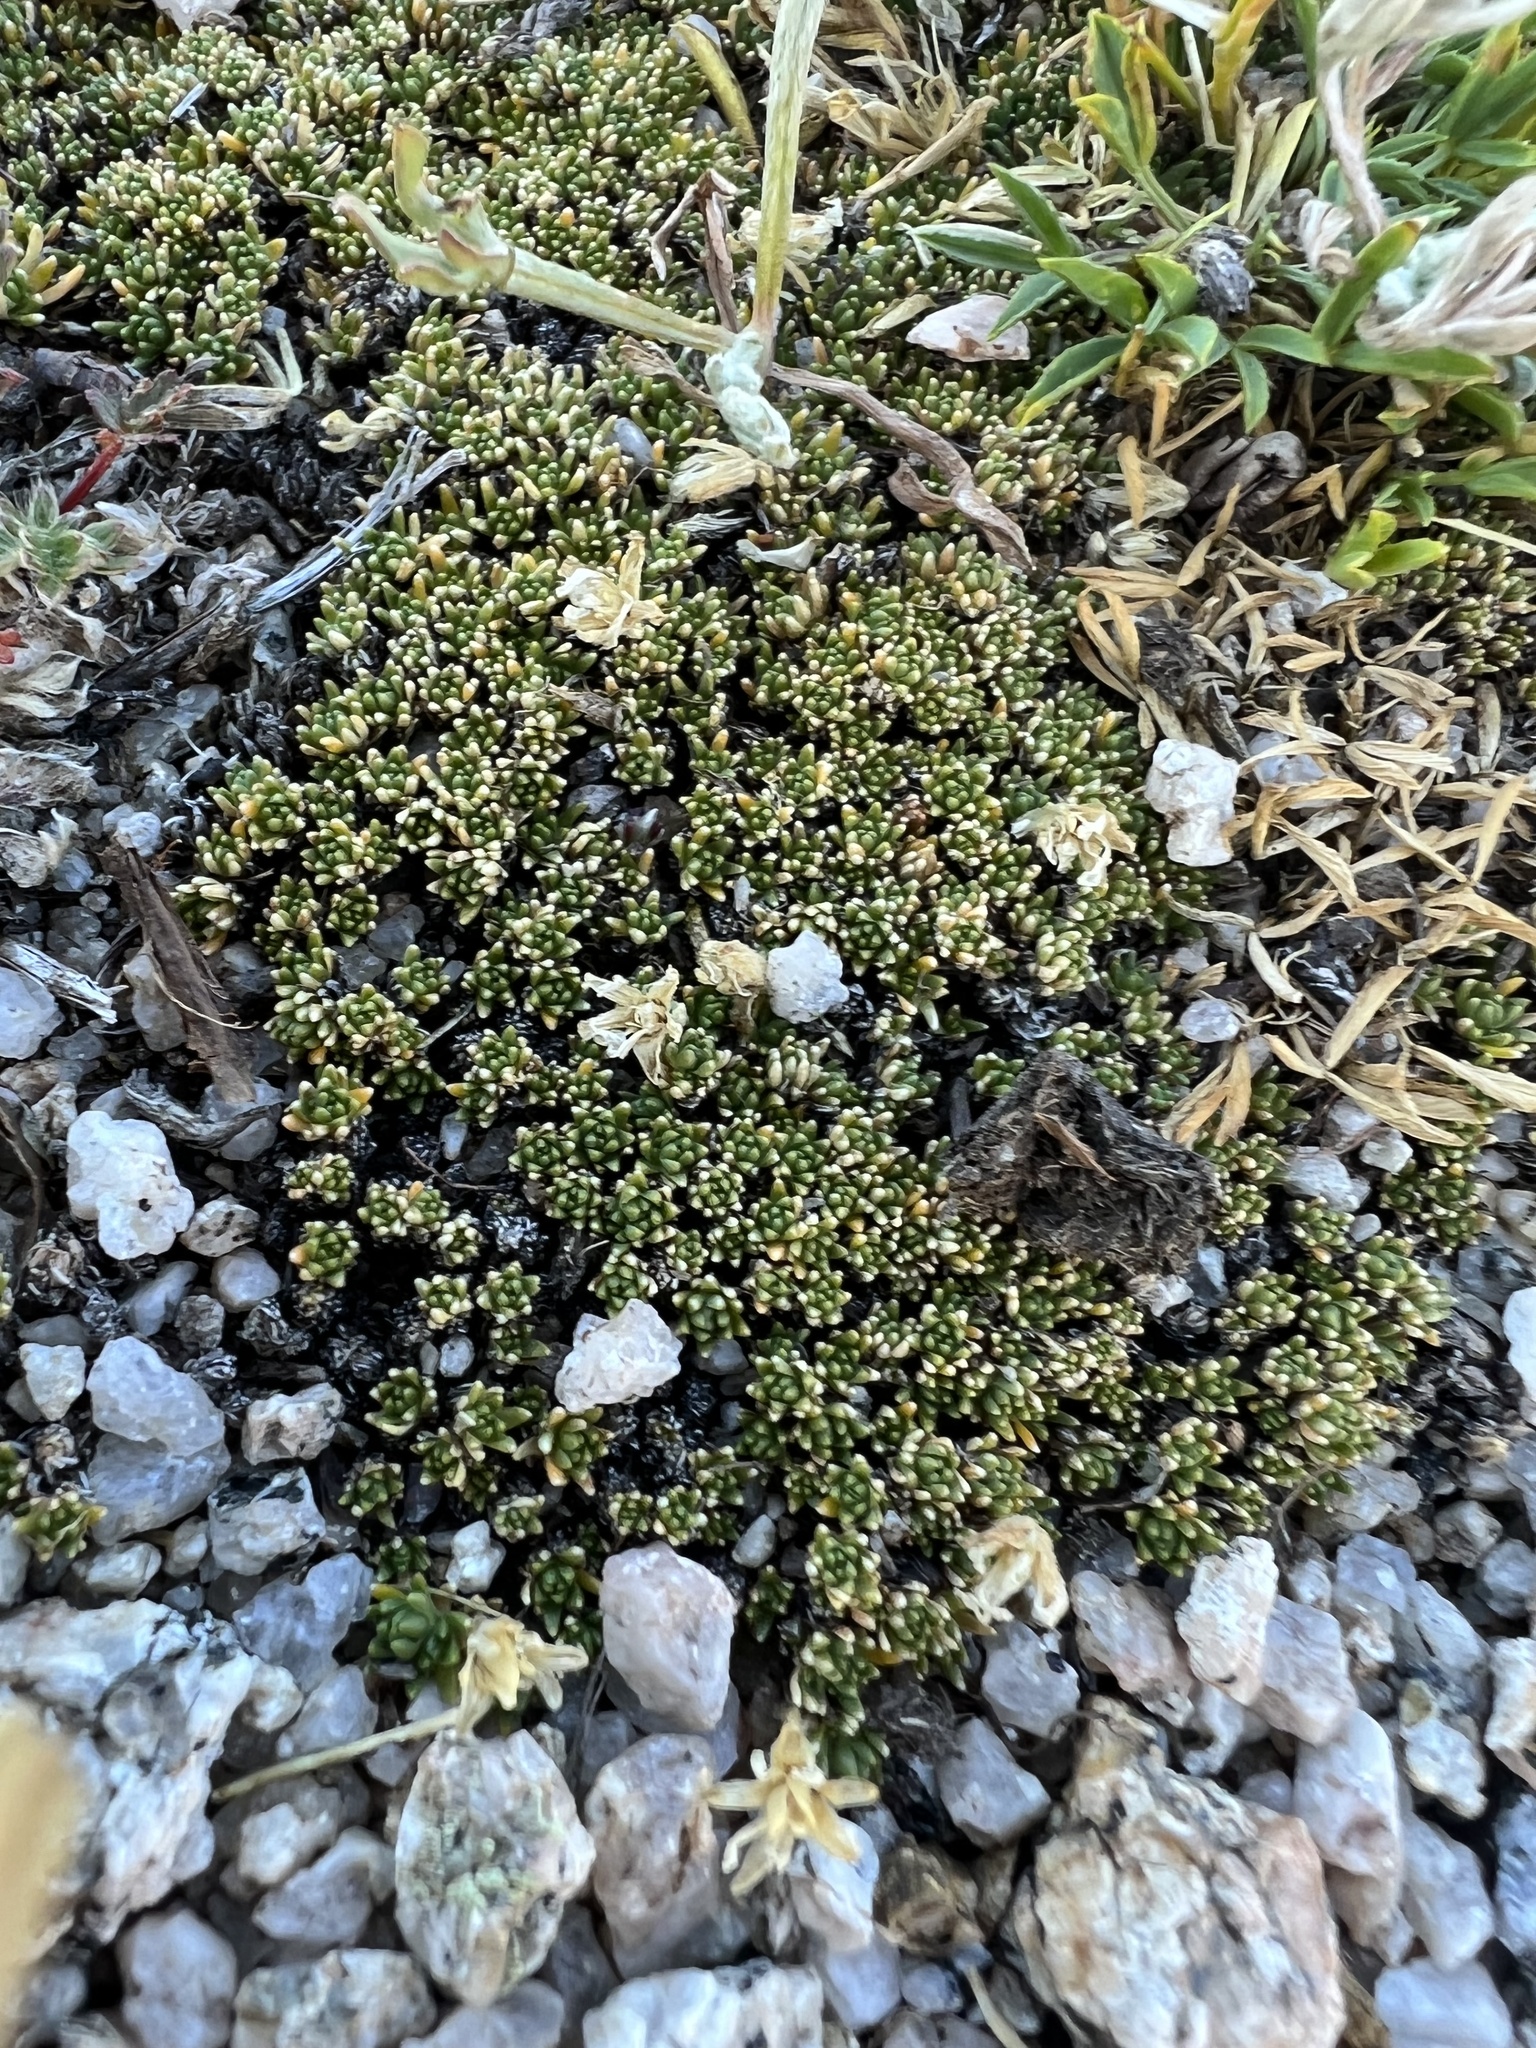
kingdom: Plantae
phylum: Tracheophyta
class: Magnoliopsida
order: Caryophyllales
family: Caryophyllaceae
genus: Cherleria
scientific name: Cherleria obtusiloba
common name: Alpine stitchwort
